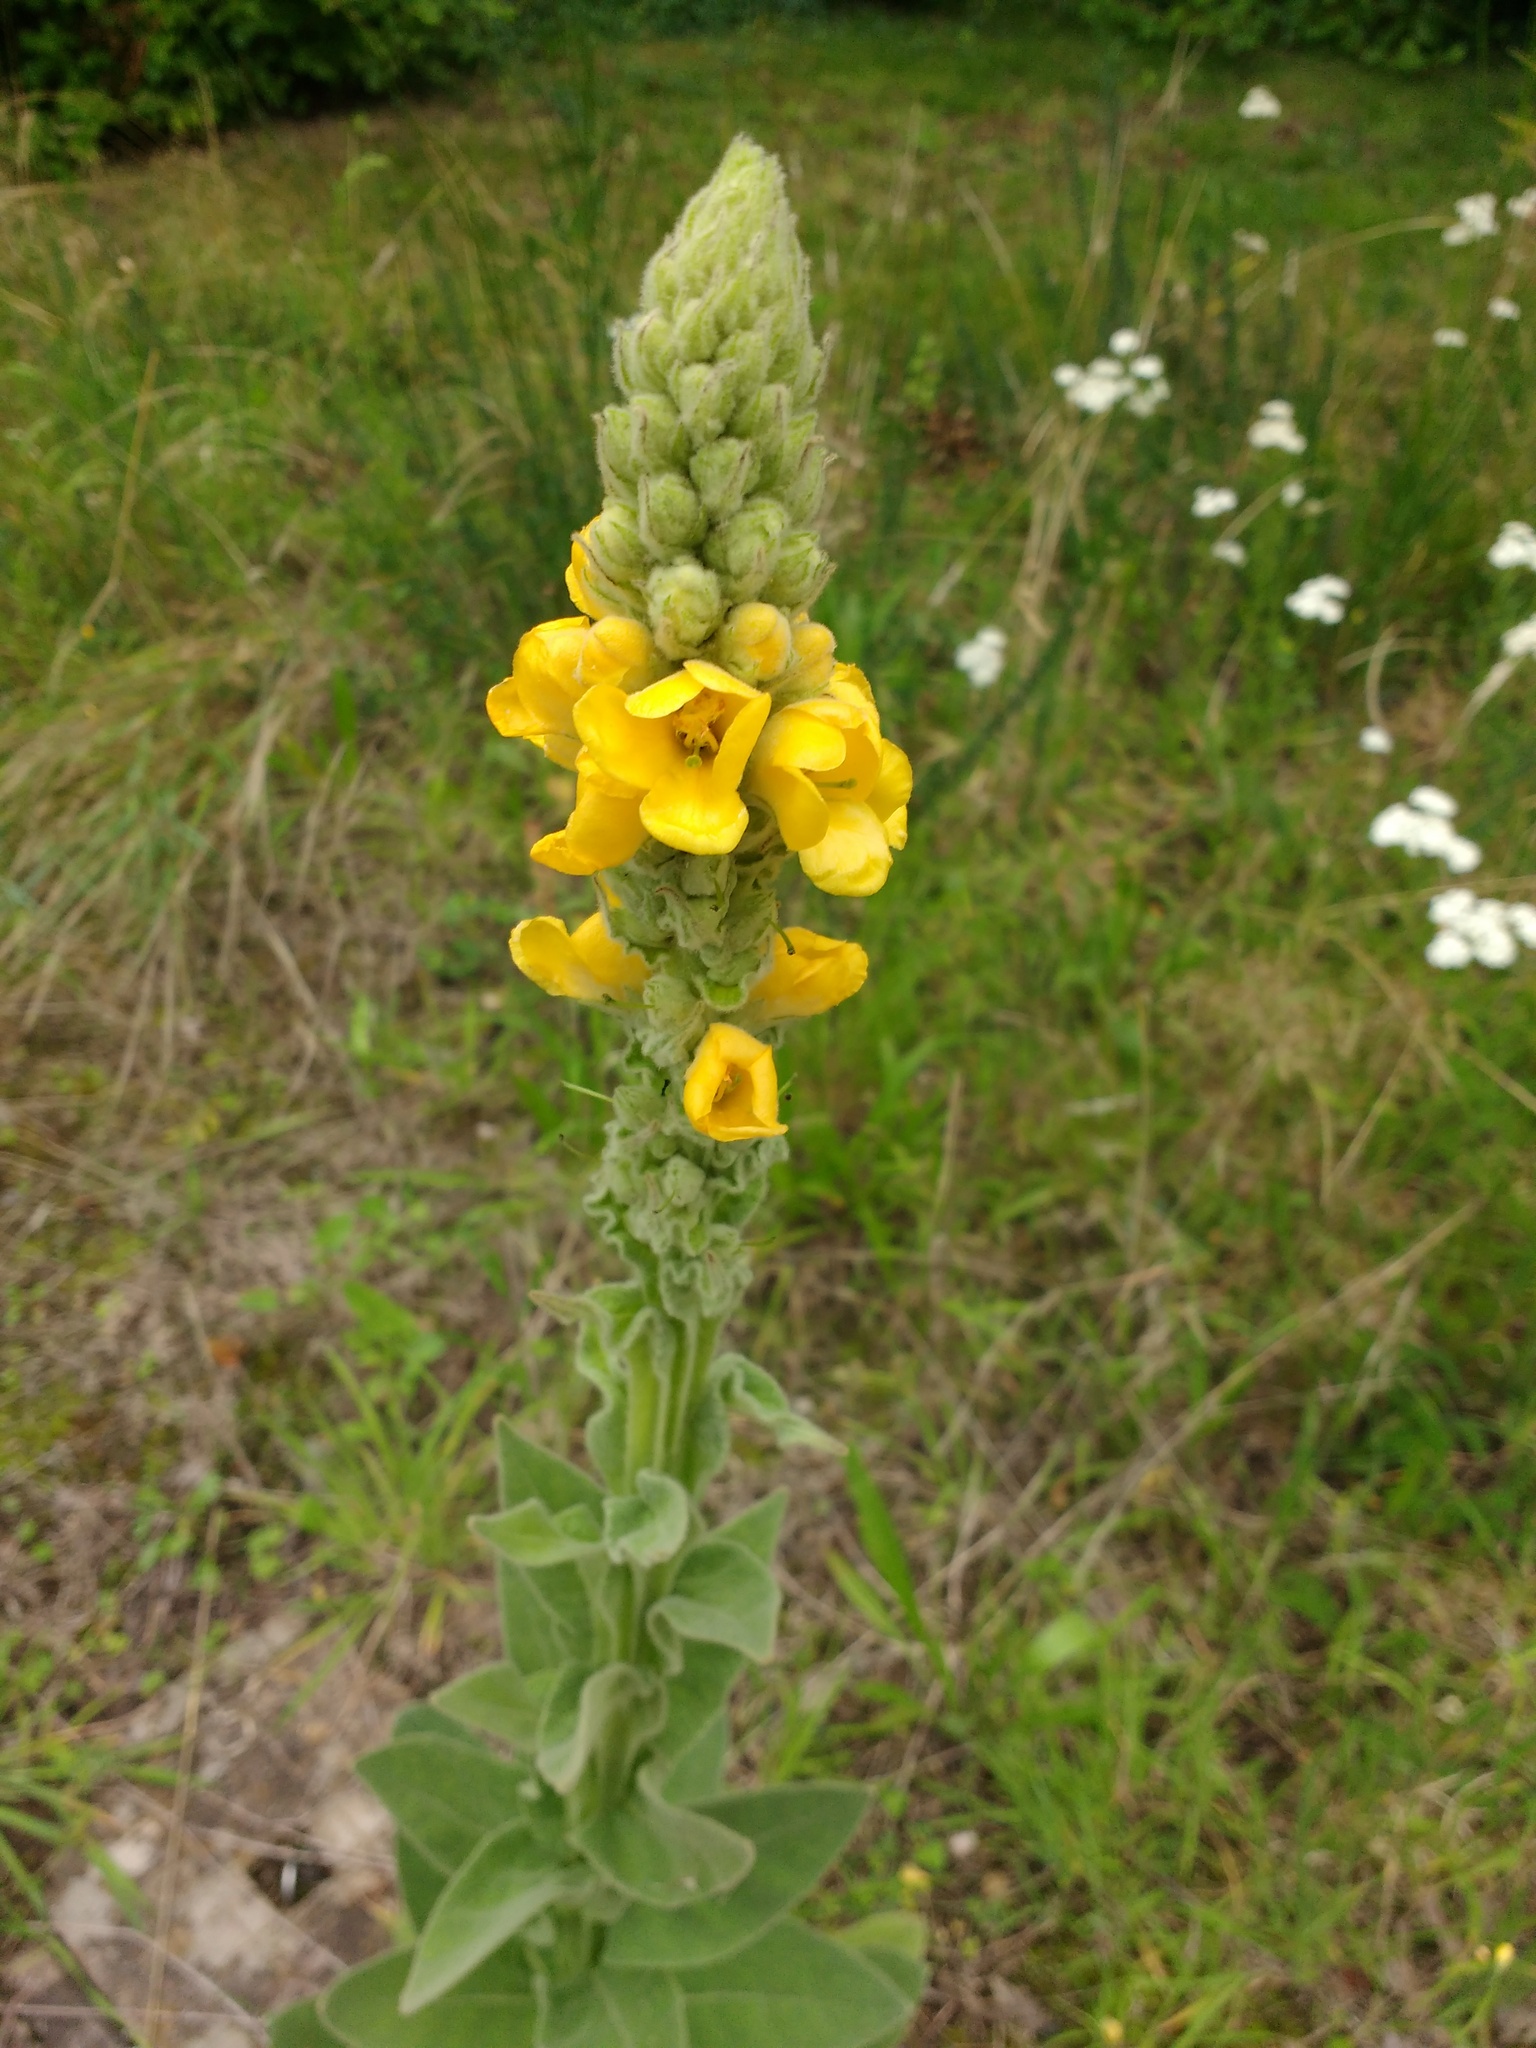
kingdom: Plantae
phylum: Tracheophyta
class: Magnoliopsida
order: Lamiales
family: Scrophulariaceae
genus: Verbascum
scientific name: Verbascum thapsus
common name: Common mullein
